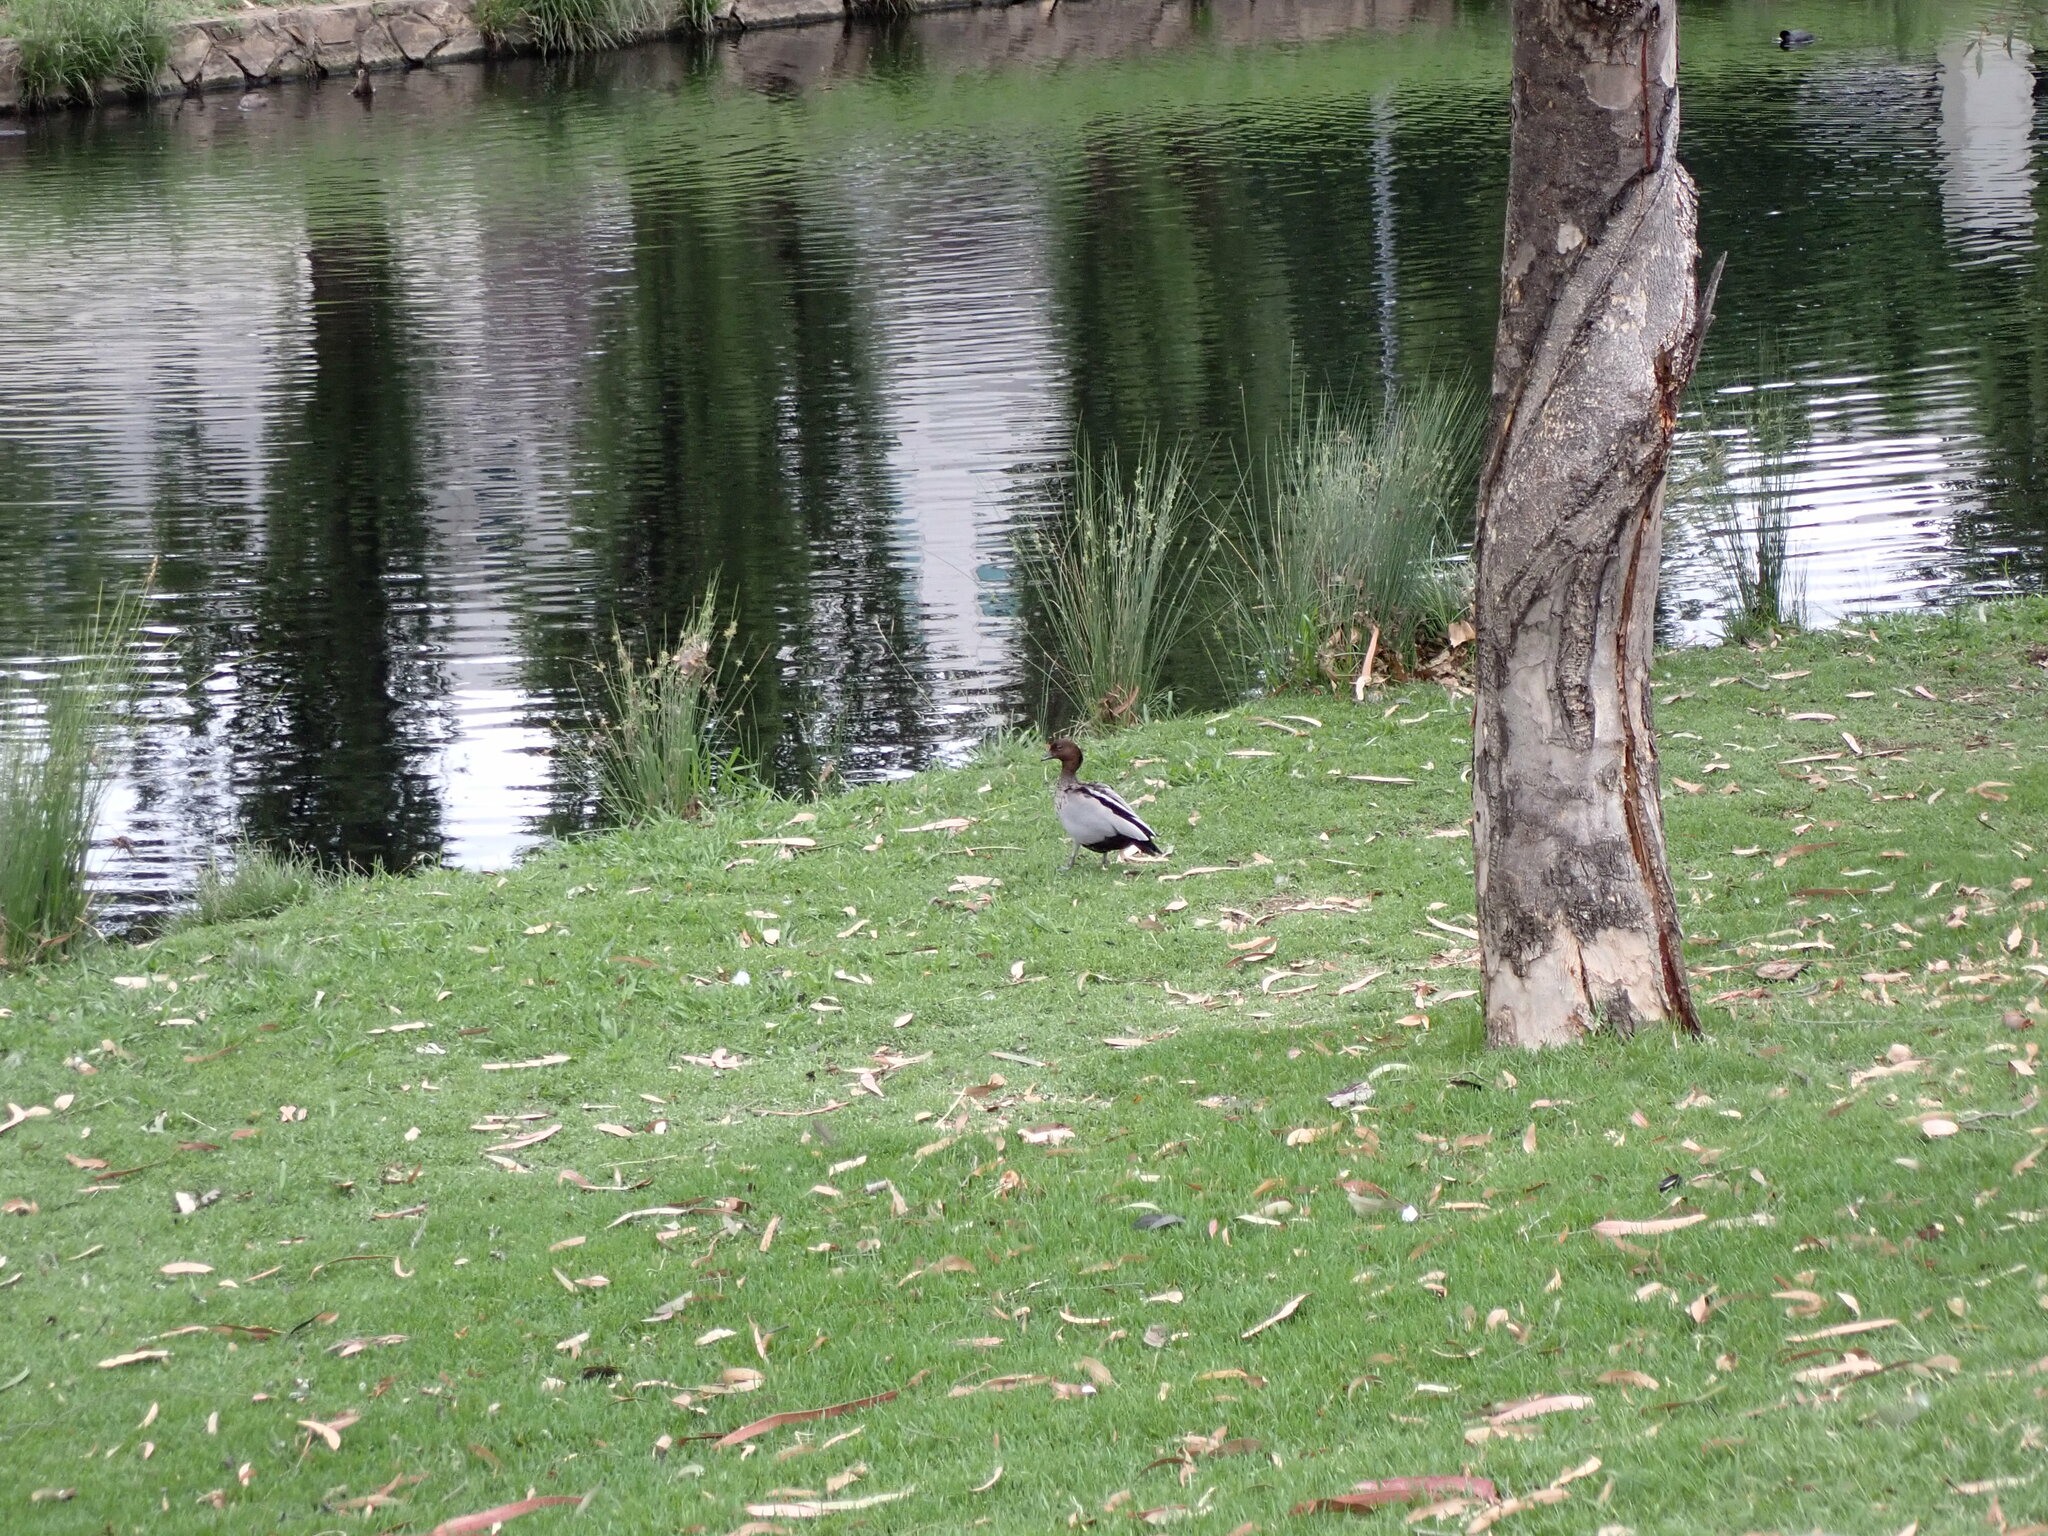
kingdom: Animalia
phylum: Chordata
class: Aves
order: Anseriformes
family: Anatidae
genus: Chenonetta
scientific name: Chenonetta jubata
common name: Maned duck
